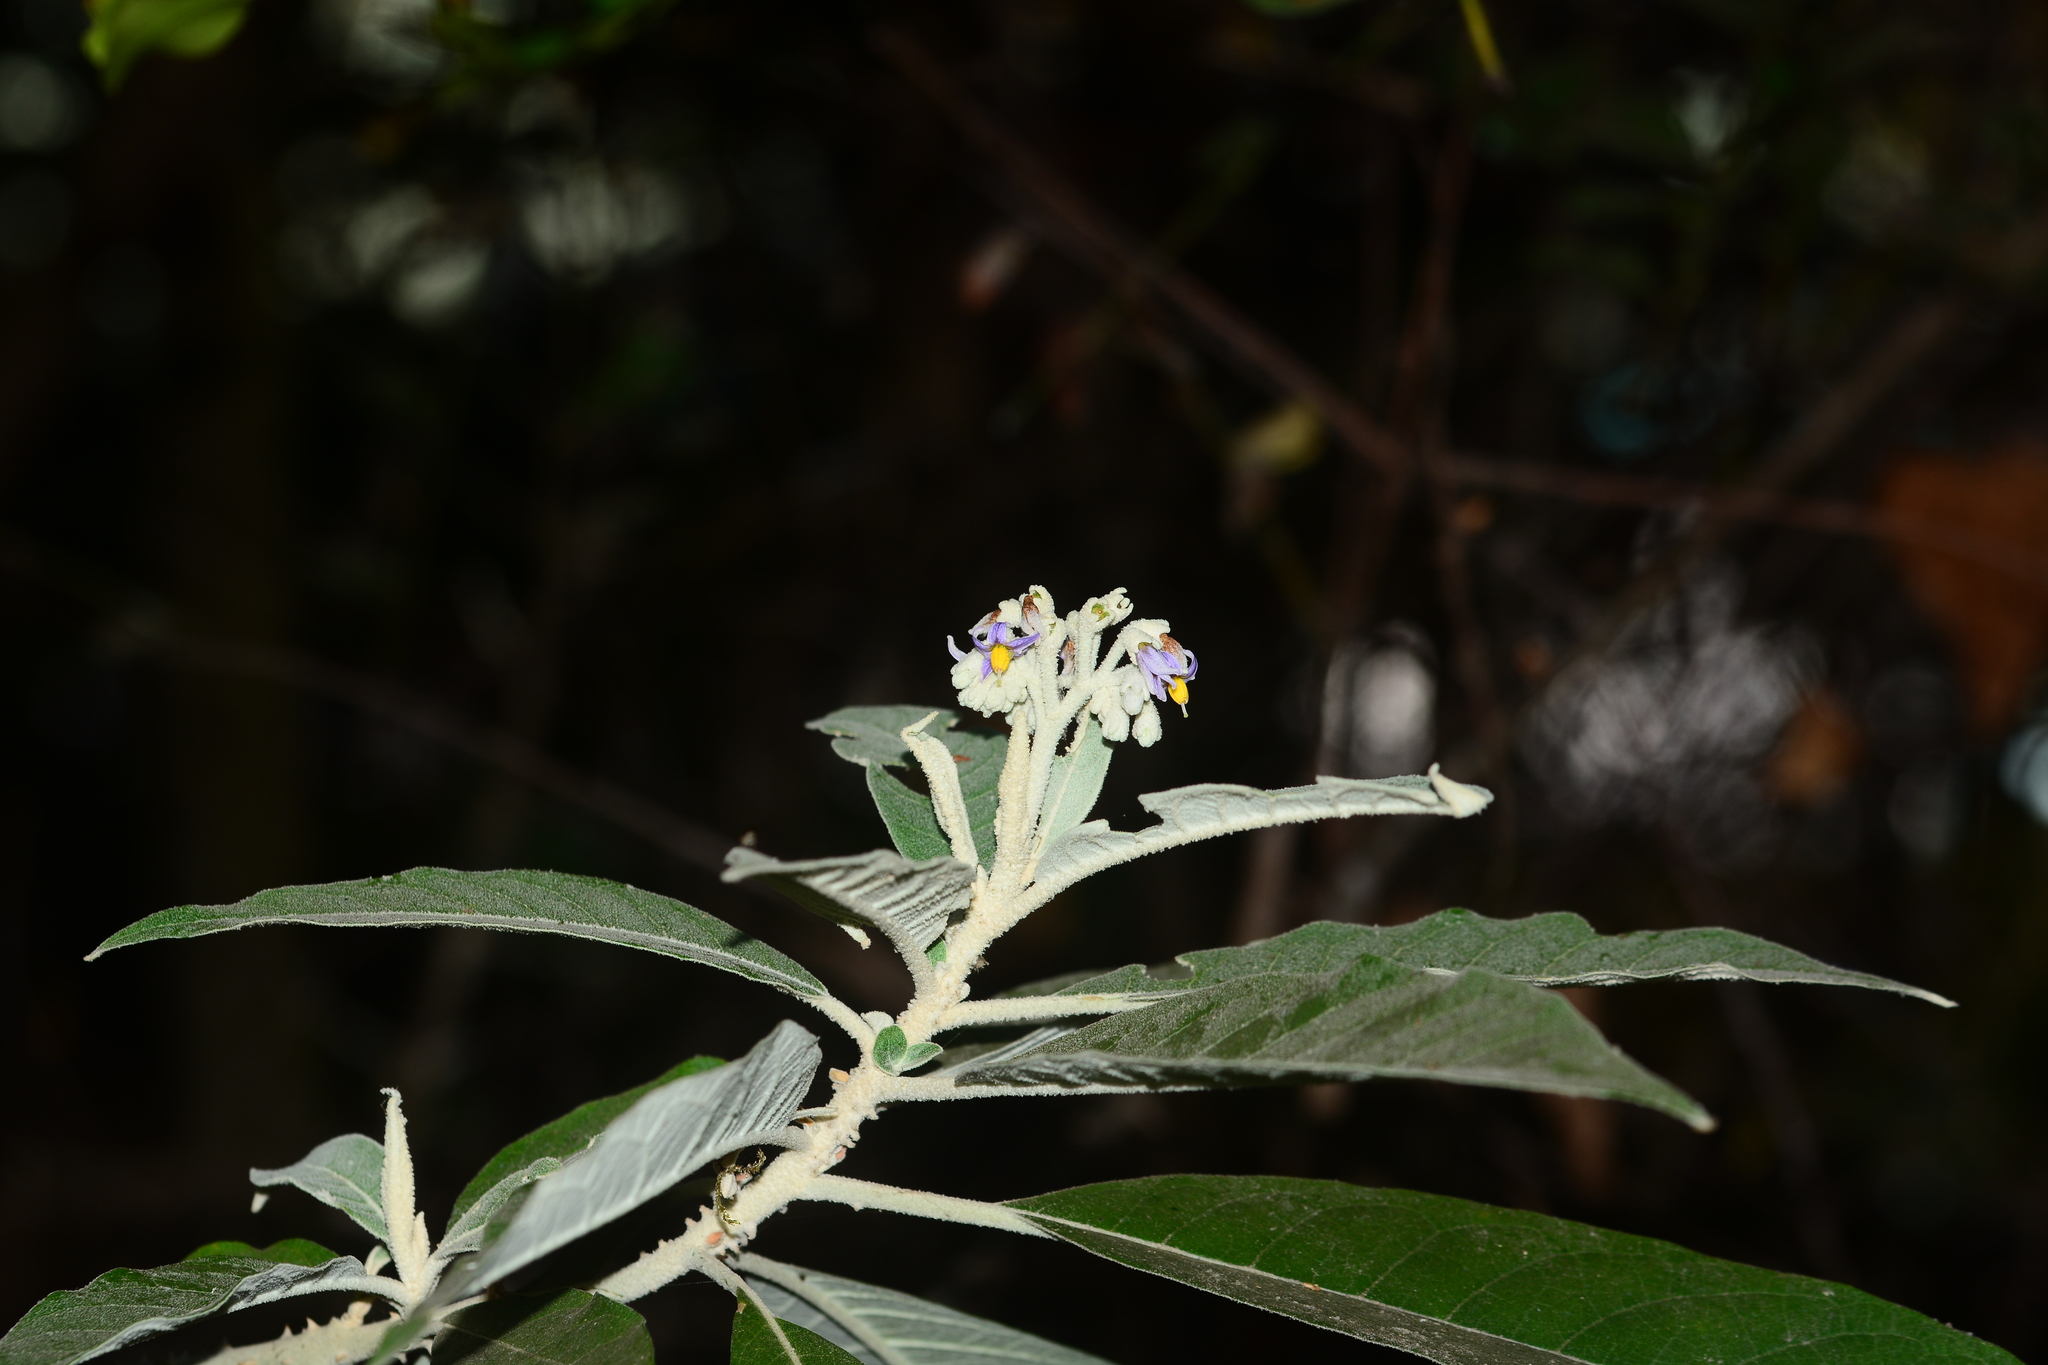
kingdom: Plantae
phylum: Tracheophyta
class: Magnoliopsida
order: Solanales
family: Solanaceae
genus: Solanum
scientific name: Solanum giganteum
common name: Healing-leaf-tree
